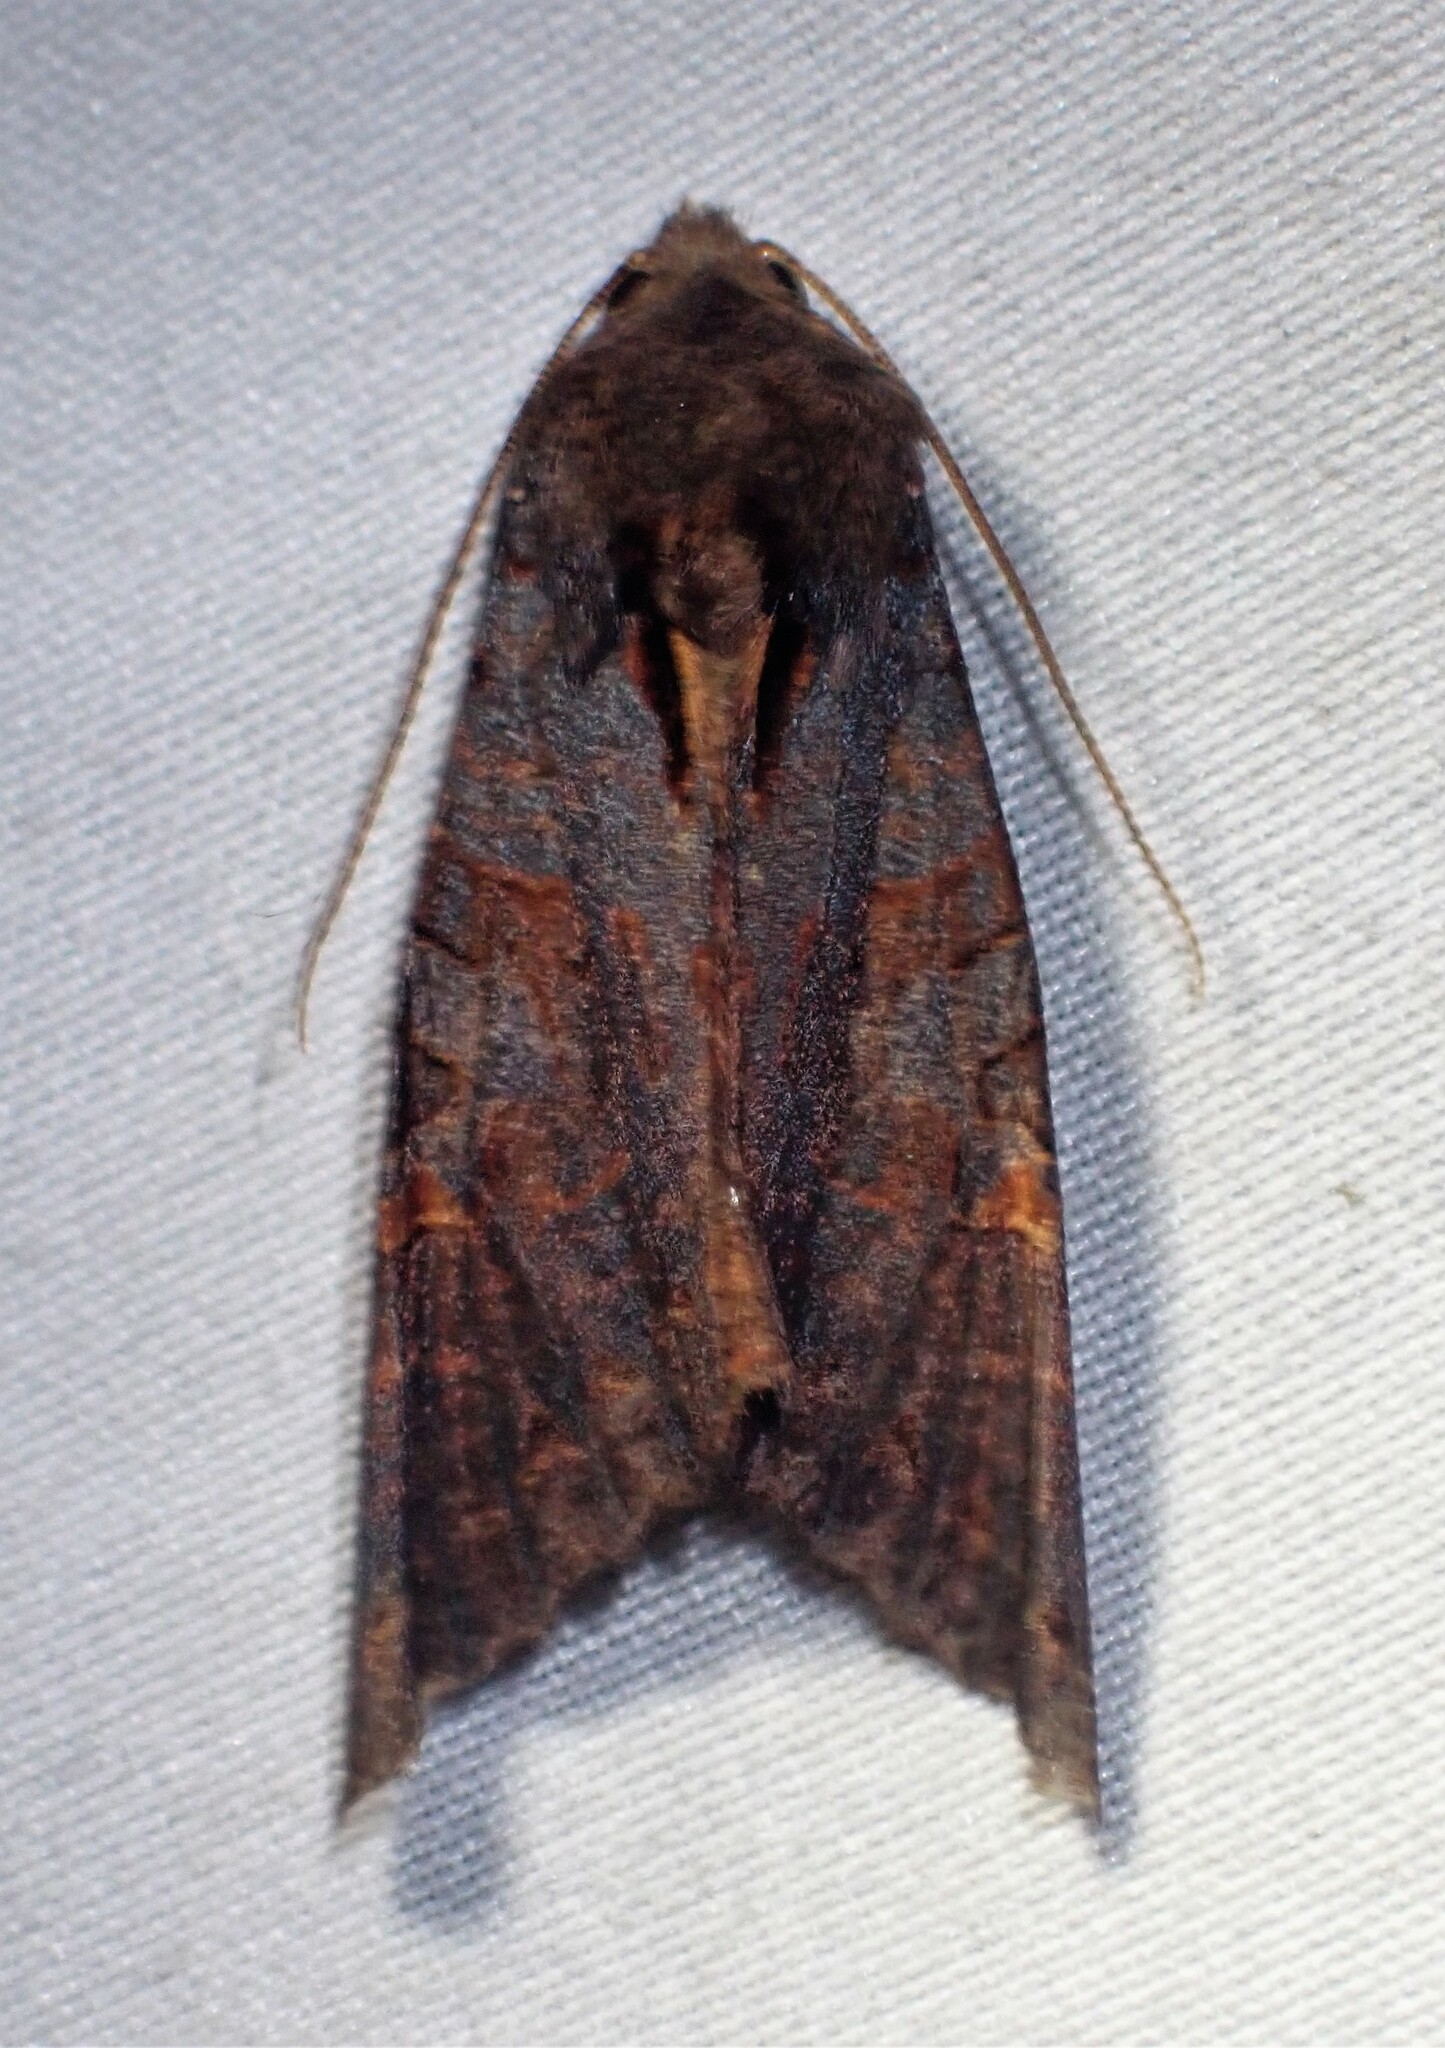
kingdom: Animalia
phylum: Arthropoda
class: Insecta
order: Lepidoptera
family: Noctuidae
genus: Phlogophora
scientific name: Phlogophora cabrali
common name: Owlet moth
